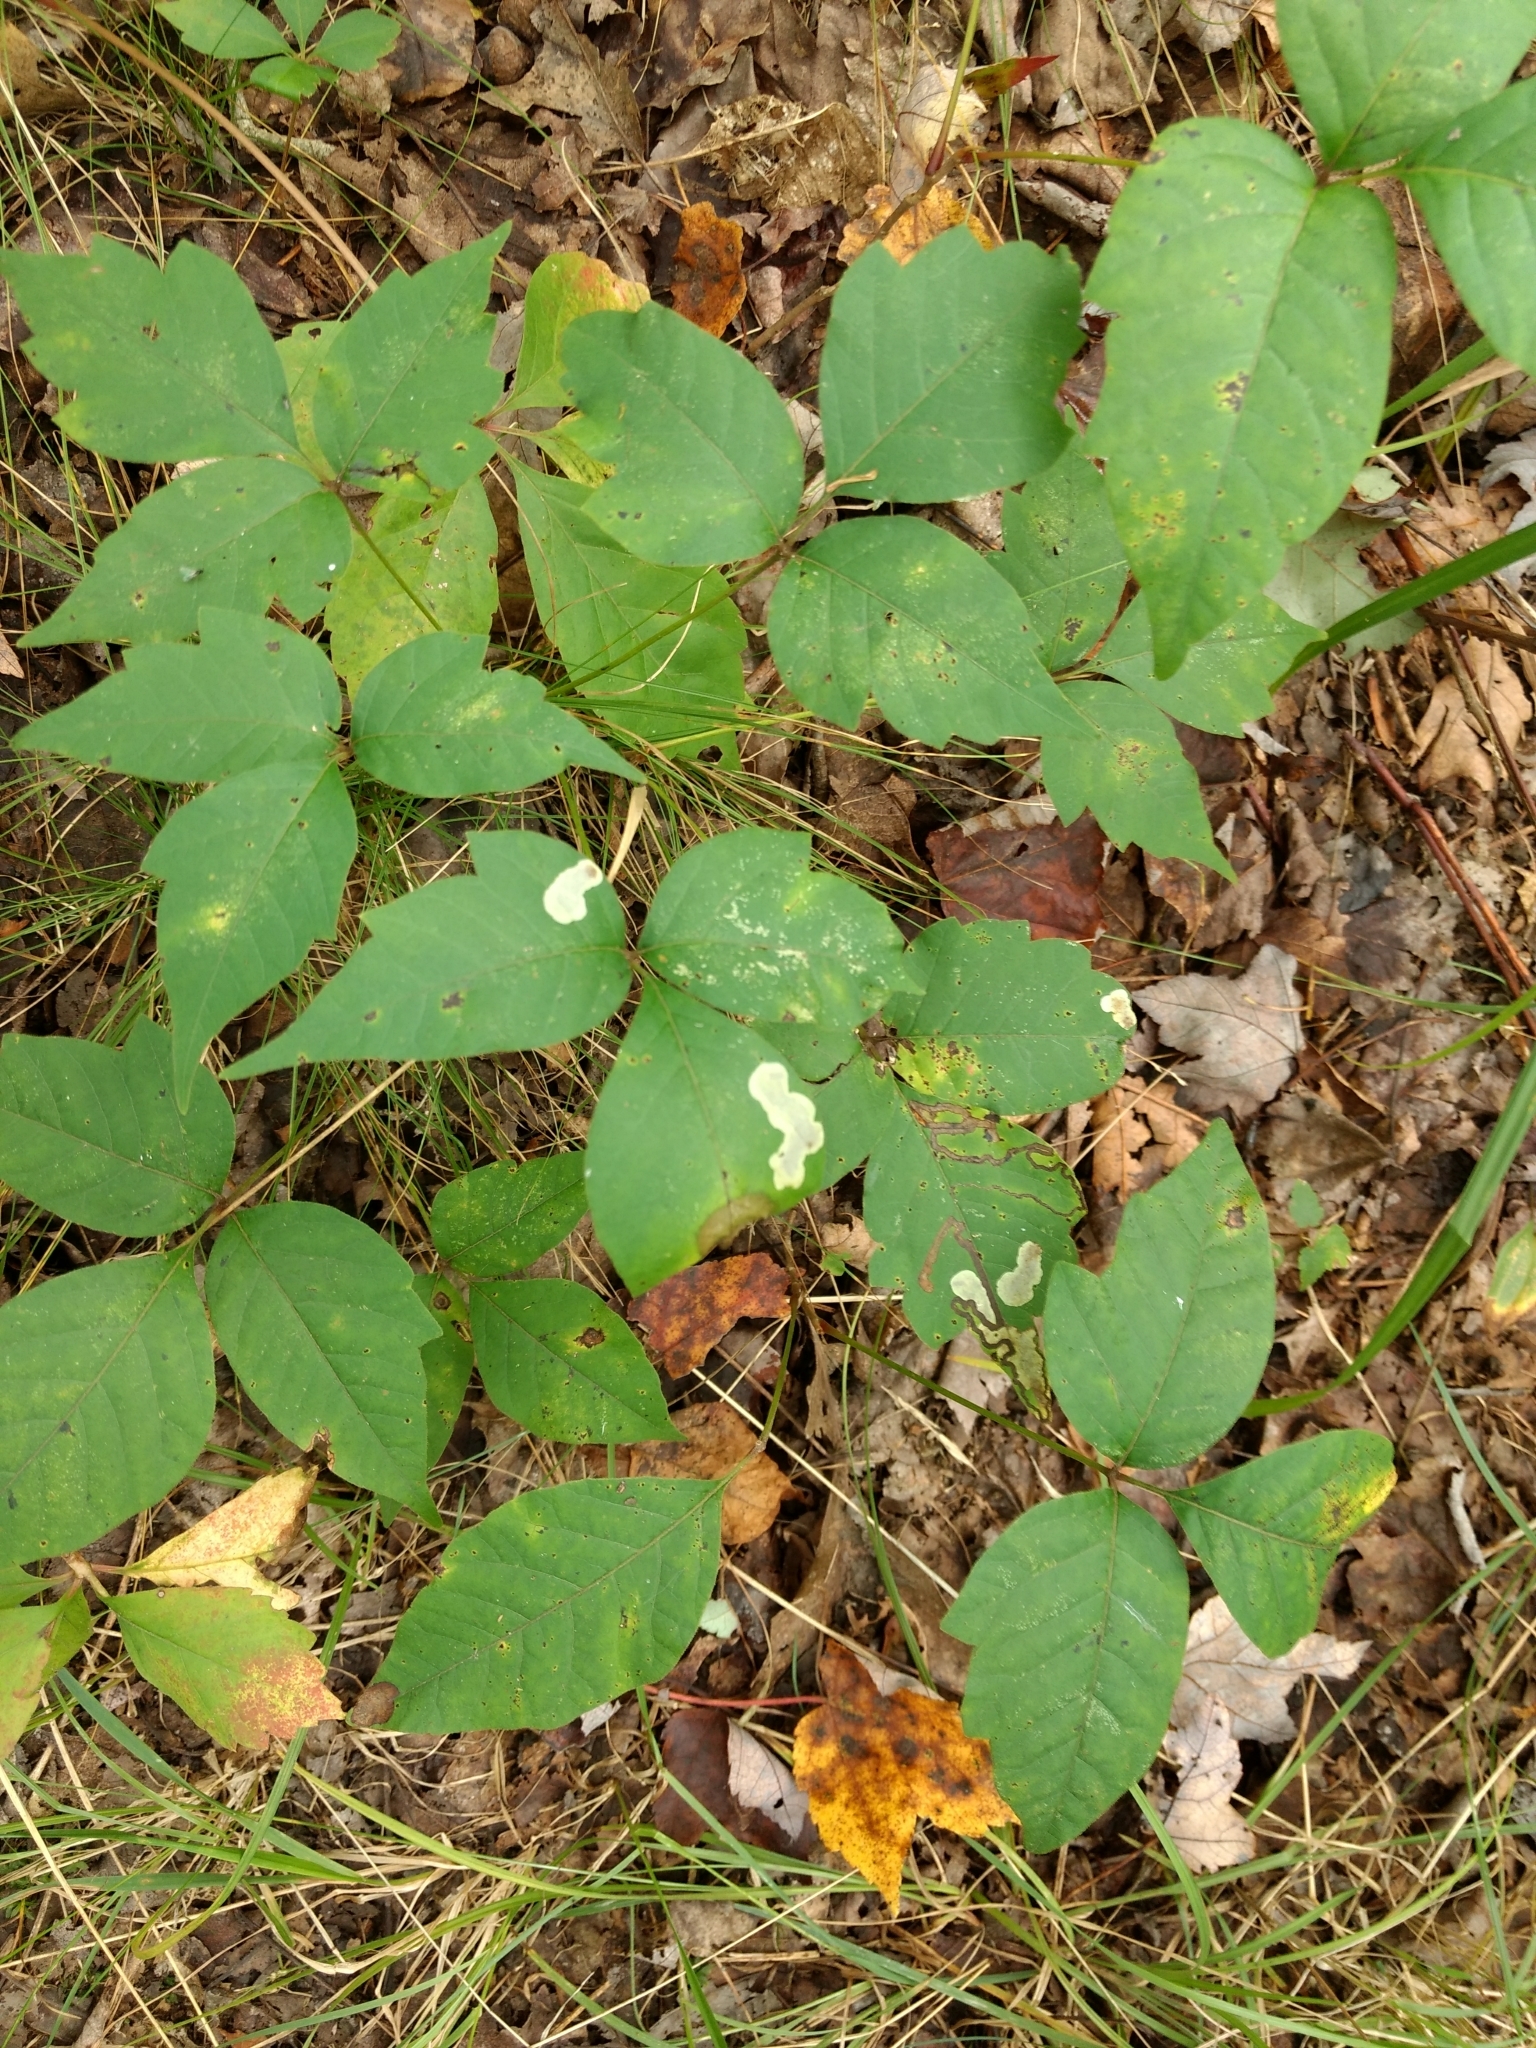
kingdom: Animalia
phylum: Arthropoda
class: Insecta
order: Lepidoptera
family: Gracillariidae
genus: Cameraria
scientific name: Cameraria guttifinitella
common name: Poison ivy leaf-miner moth
